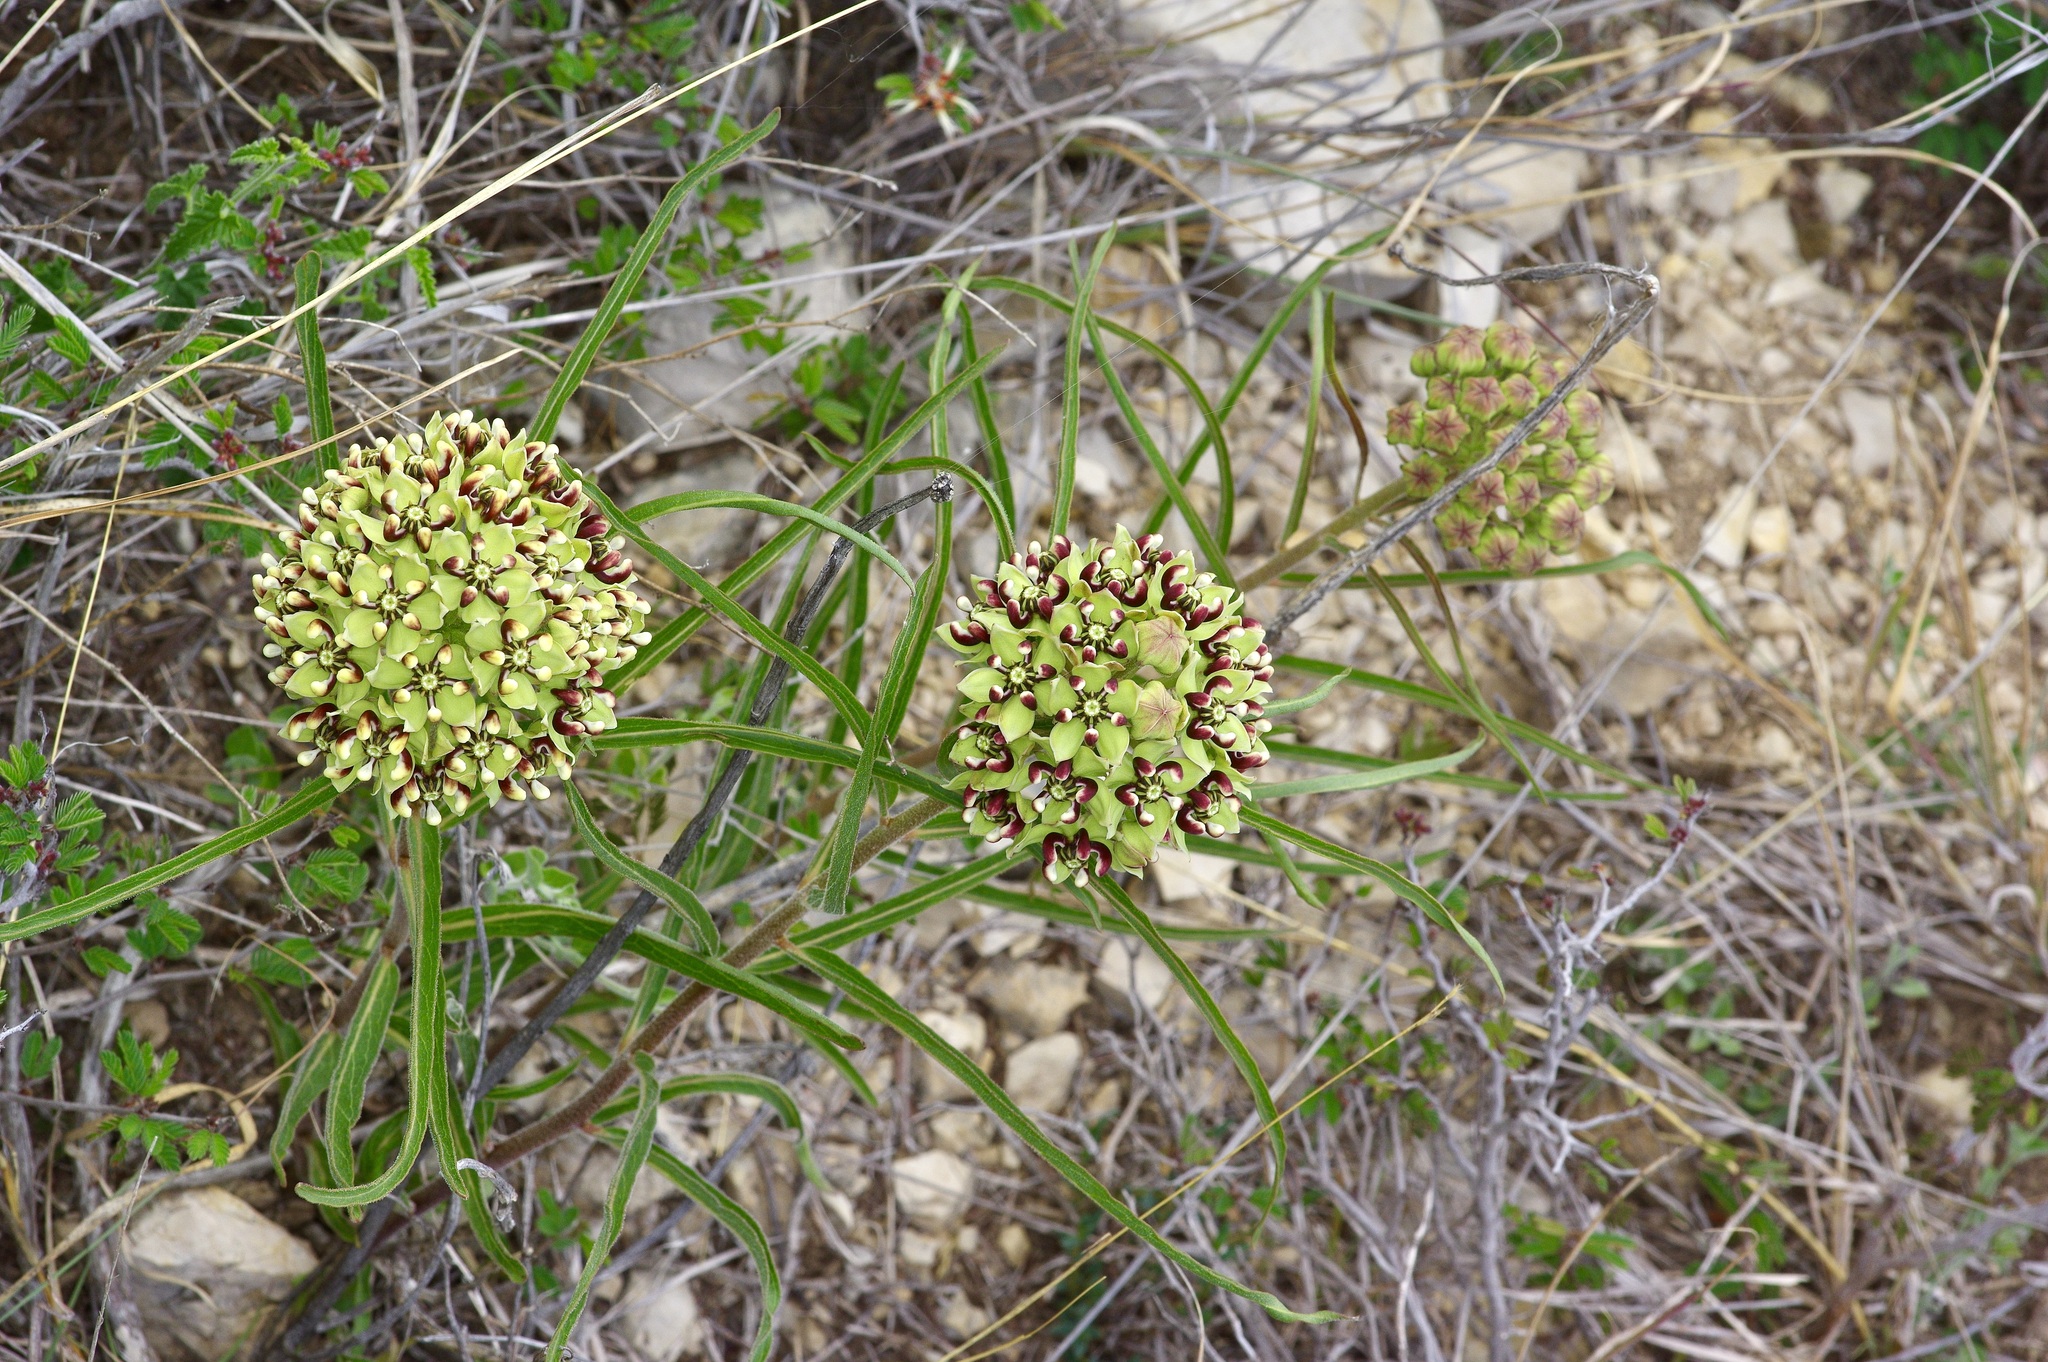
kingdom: Plantae
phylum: Tracheophyta
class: Magnoliopsida
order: Gentianales
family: Apocynaceae
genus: Asclepias
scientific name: Asclepias asperula
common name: Antelope horns
